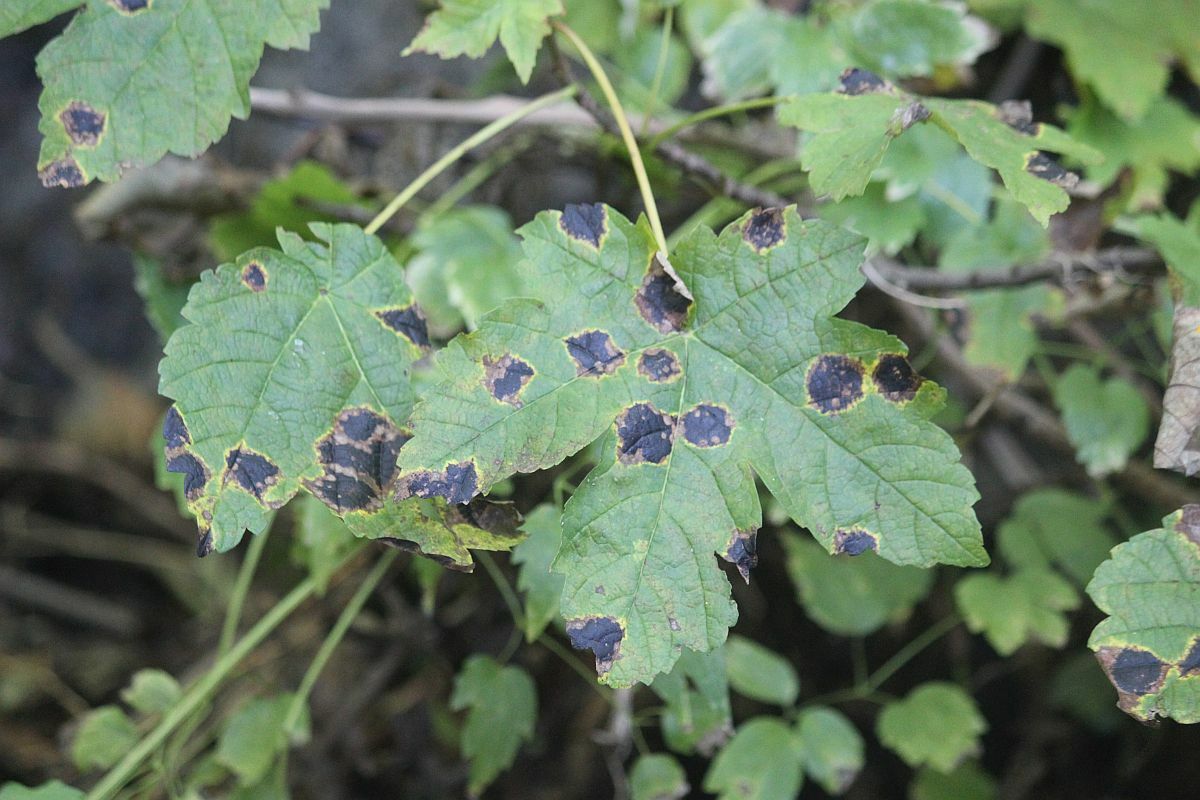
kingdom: Fungi
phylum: Ascomycota
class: Leotiomycetes
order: Rhytismatales
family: Rhytismataceae
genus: Rhytisma
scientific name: Rhytisma acerinum
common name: European tar spot
